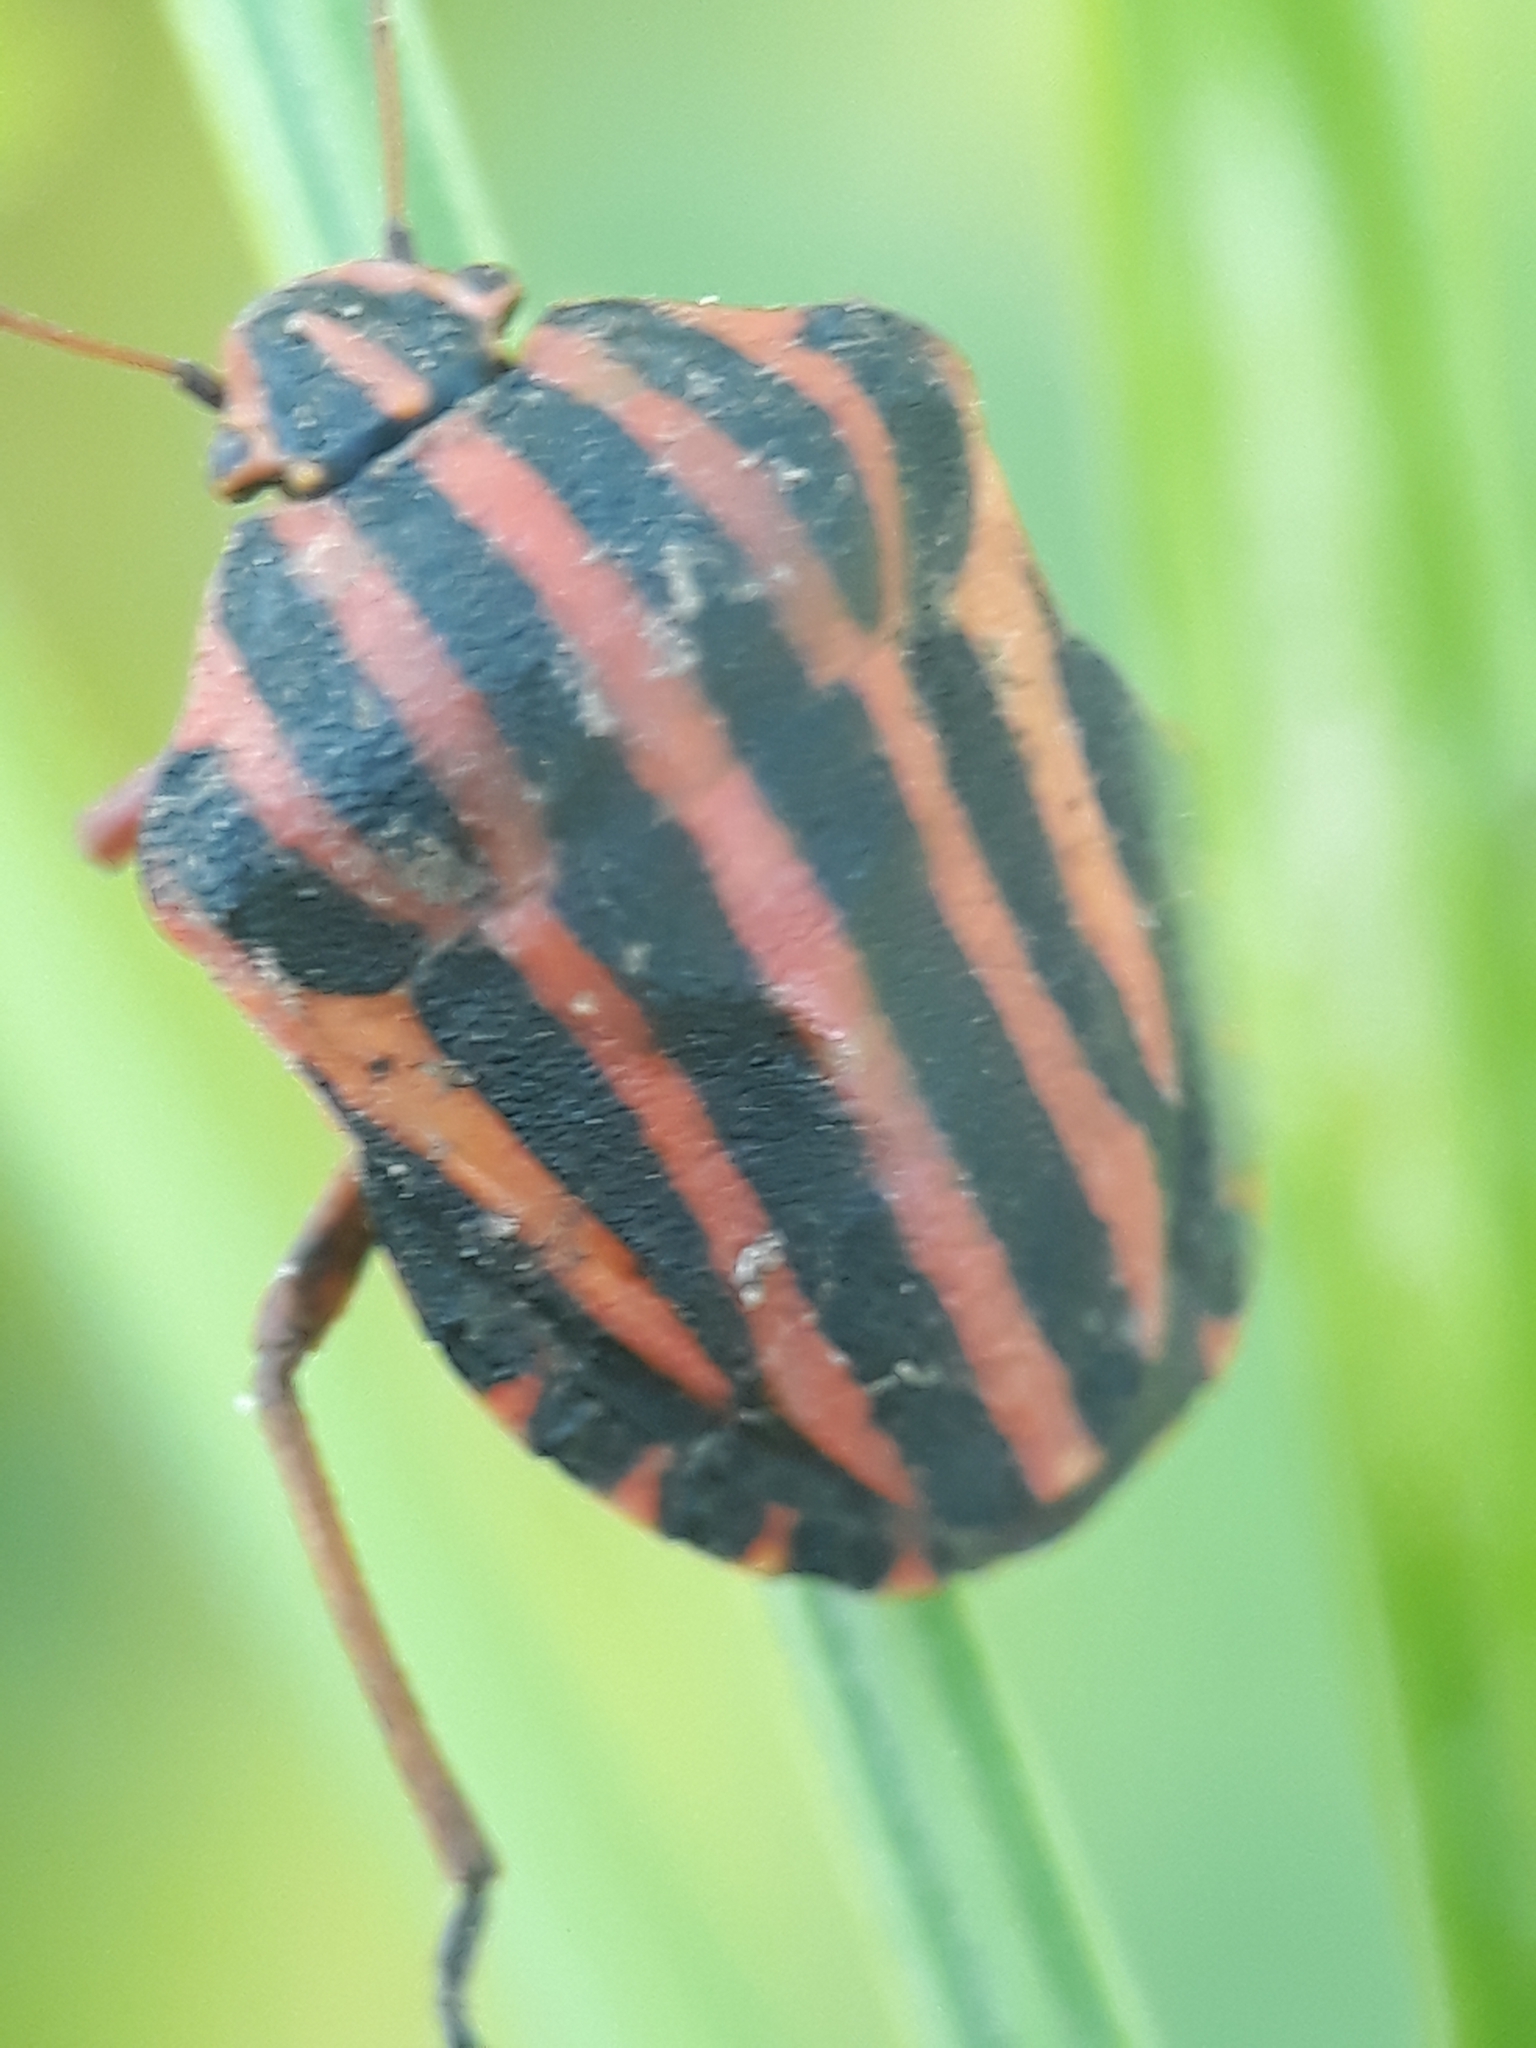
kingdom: Animalia
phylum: Arthropoda
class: Insecta
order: Hemiptera
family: Pentatomidae
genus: Graphosoma
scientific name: Graphosoma lineatum
